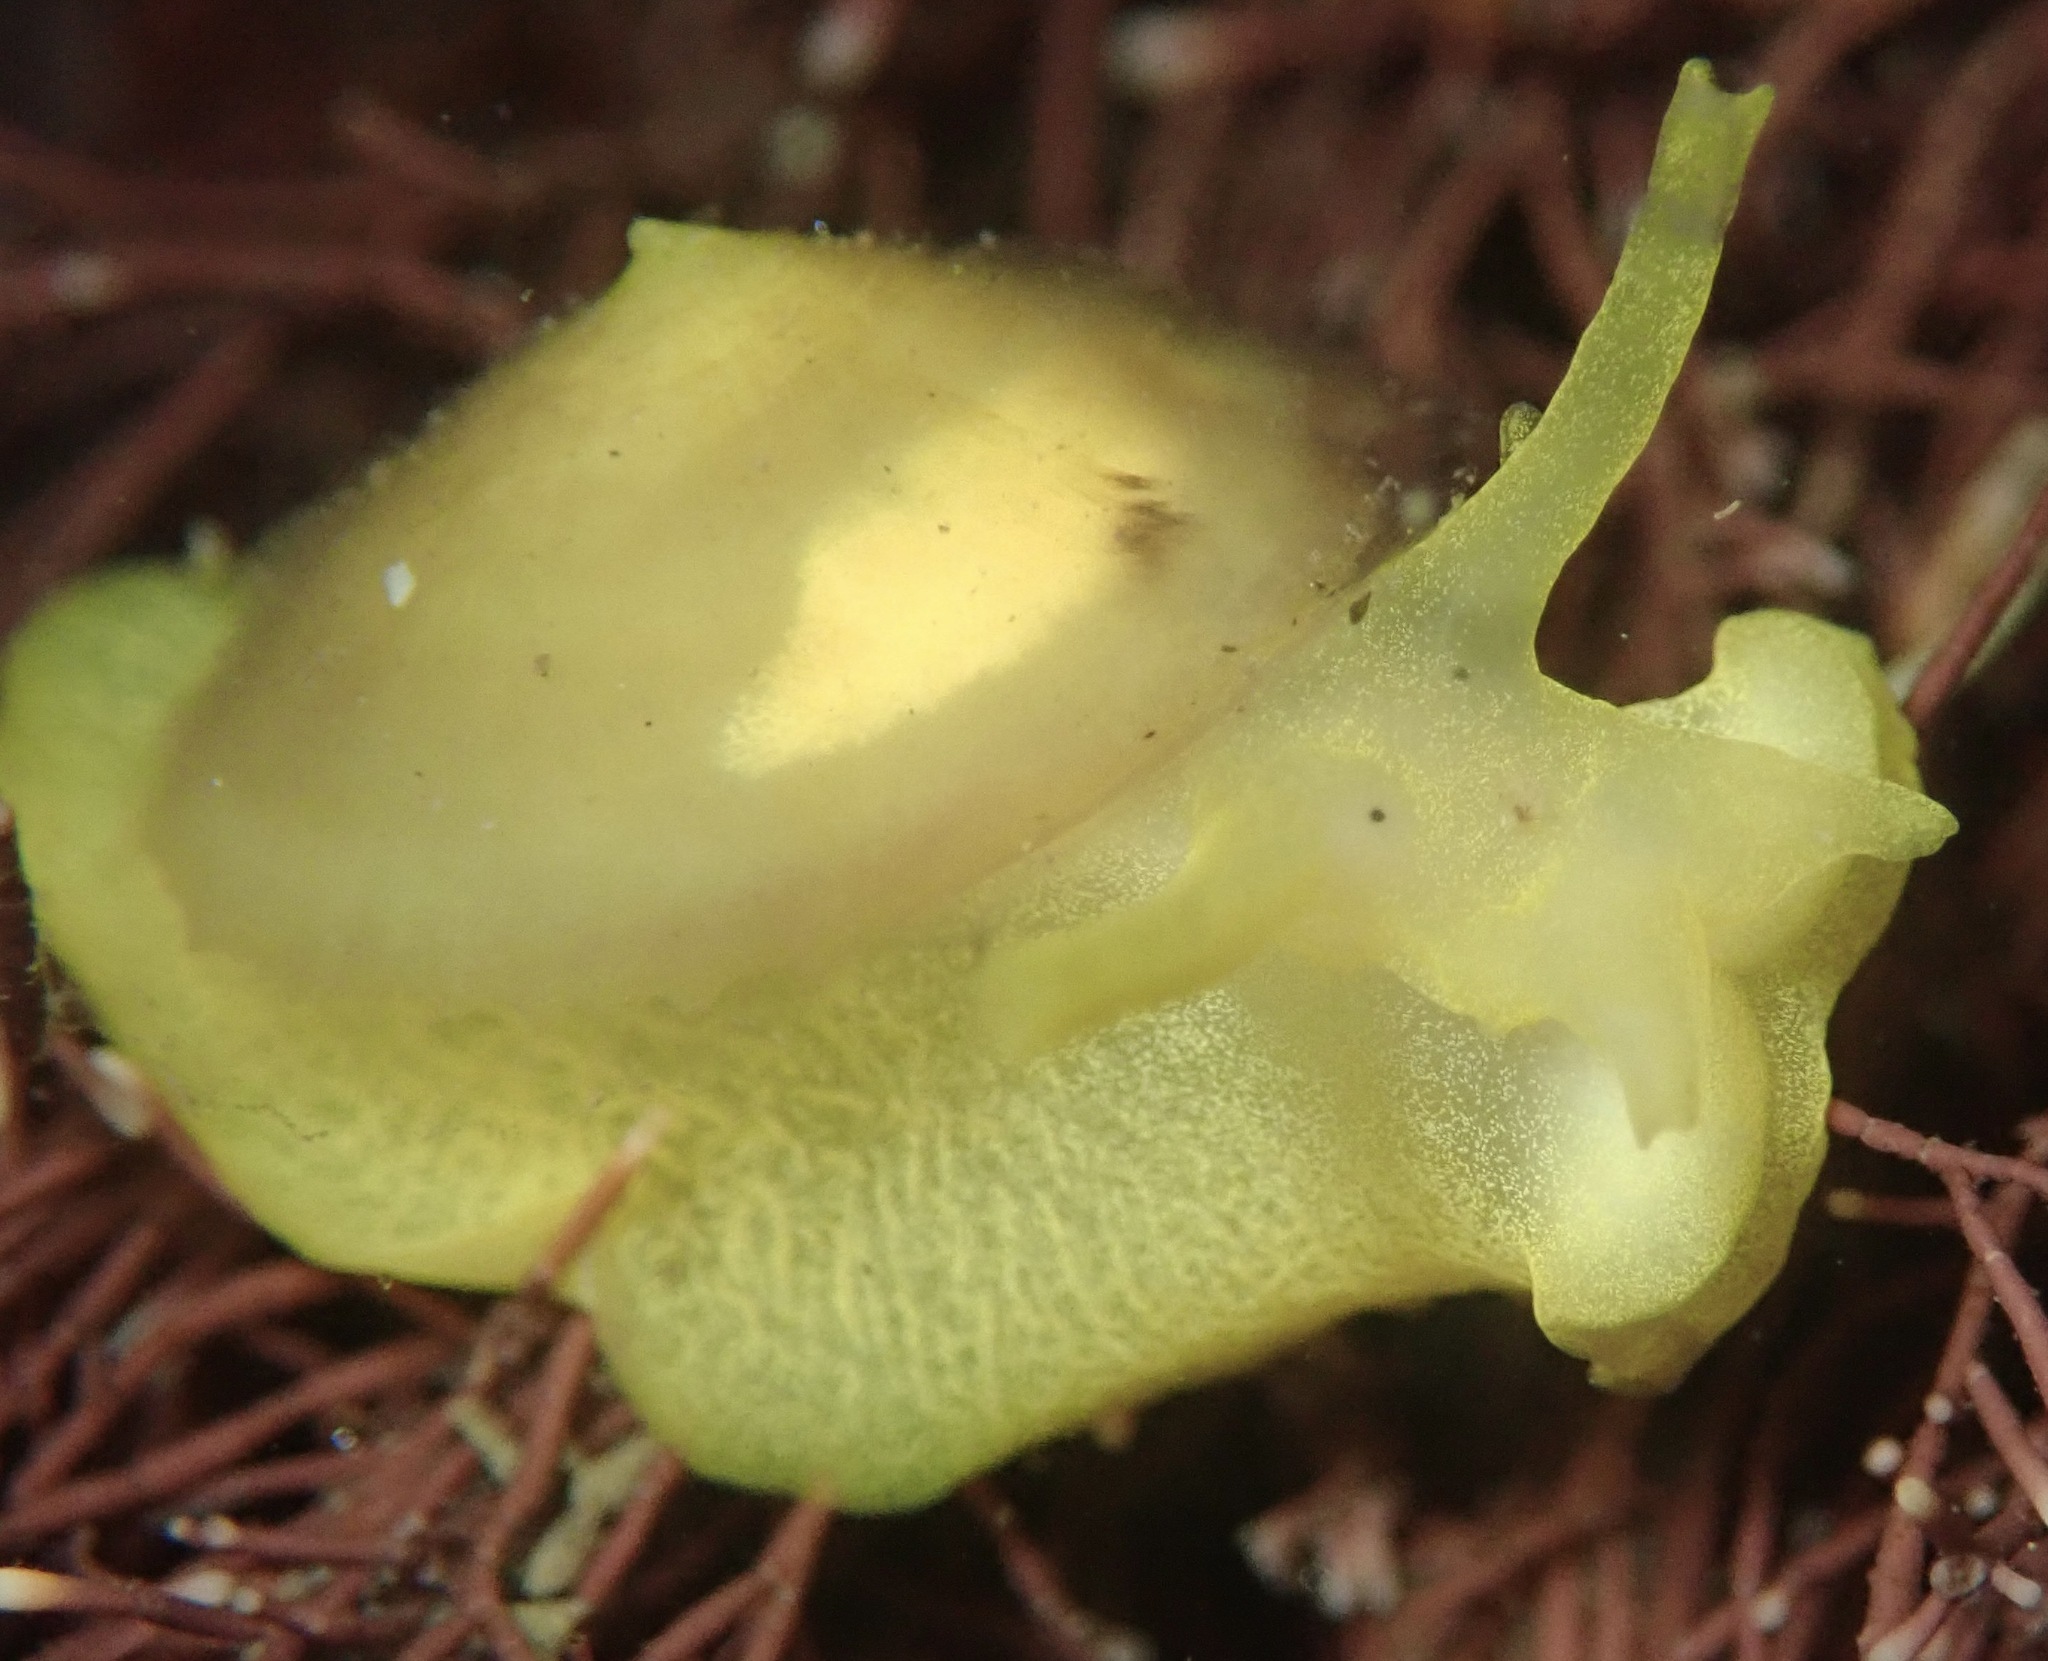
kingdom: Animalia
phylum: Mollusca
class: Gastropoda
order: Umbraculida
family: Tylodinidae
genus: Tylodina
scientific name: Tylodina fungina
